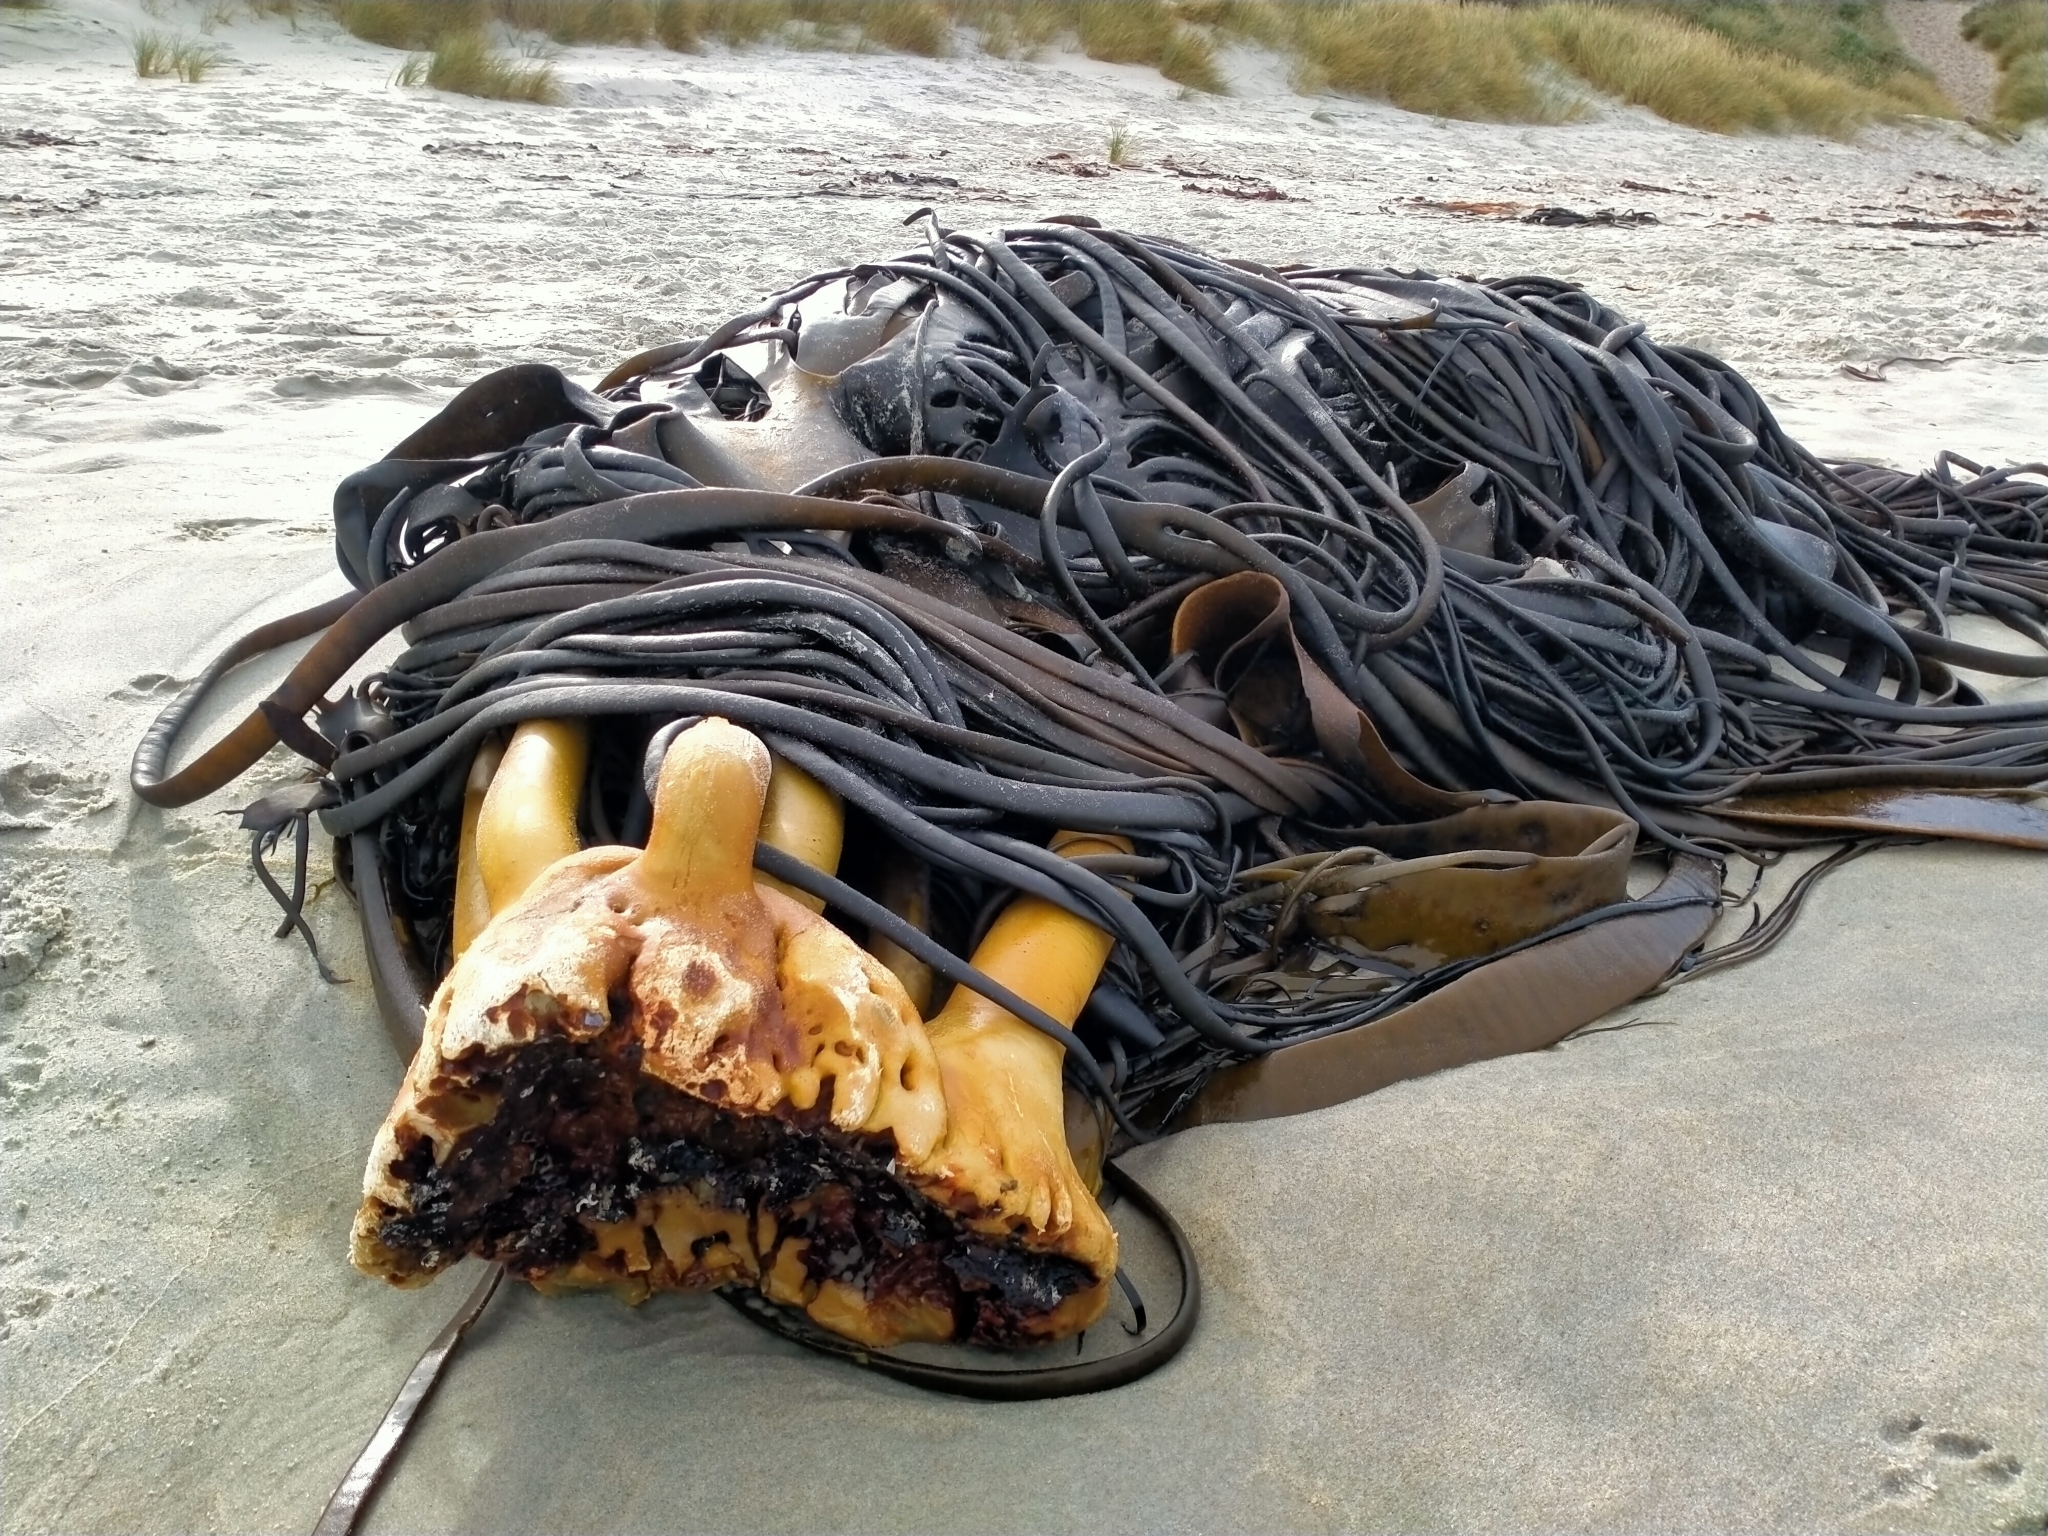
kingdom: Chromista
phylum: Ochrophyta
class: Phaeophyceae
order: Fucales
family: Durvillaeaceae
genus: Durvillaea
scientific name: Durvillaea antarctica
